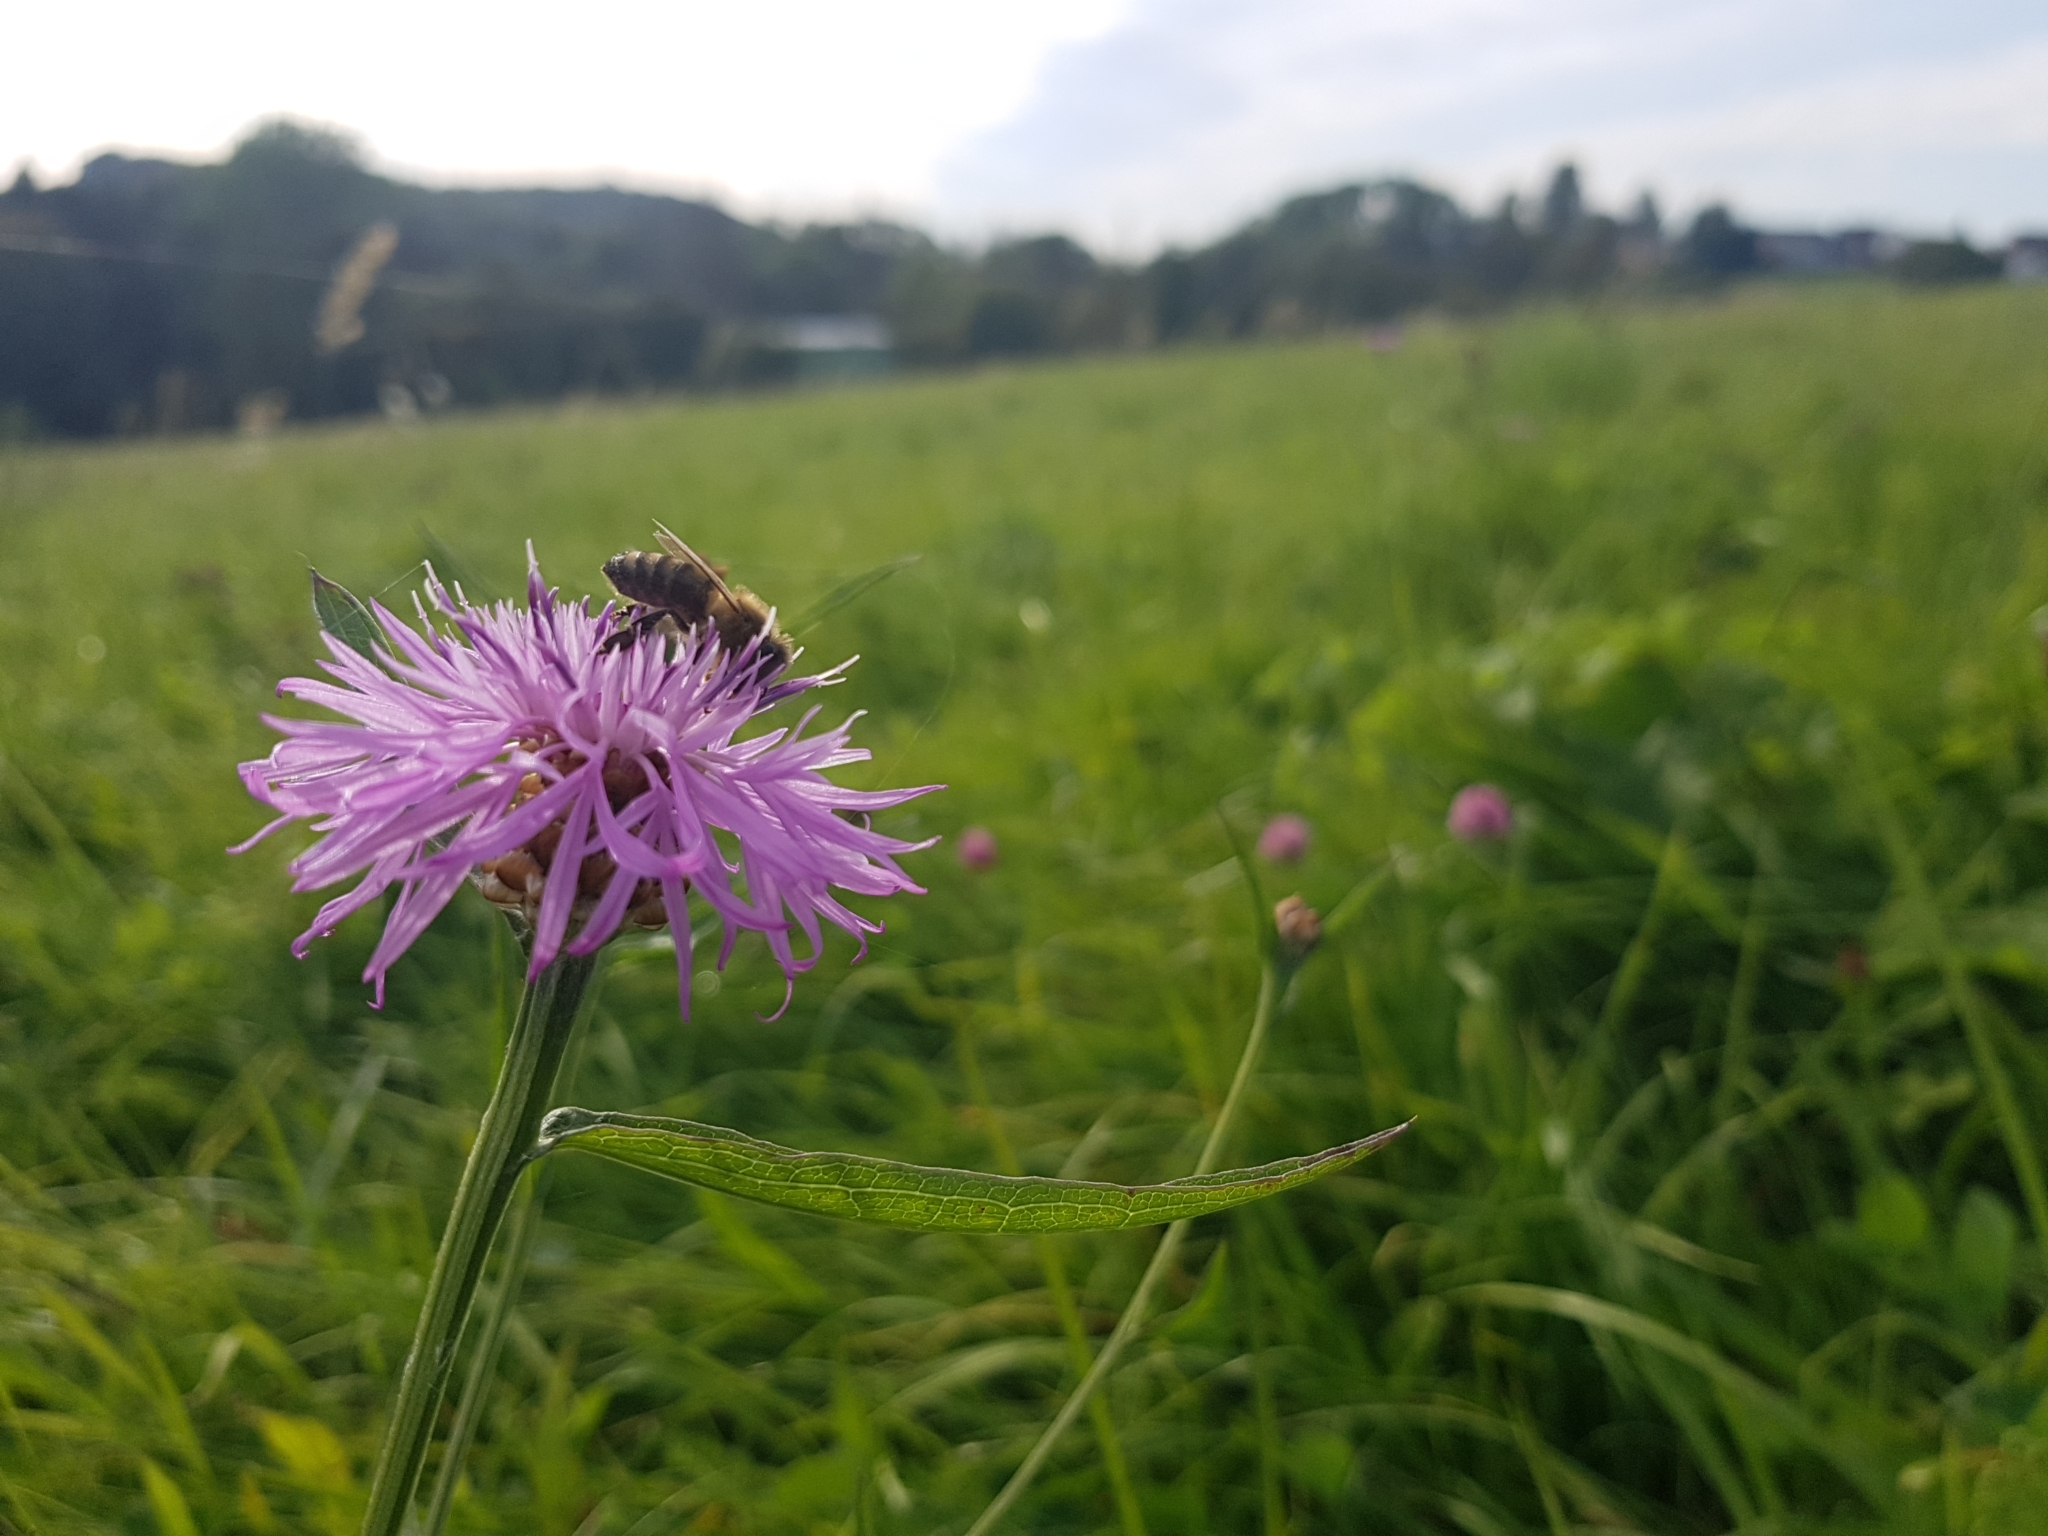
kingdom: Animalia
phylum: Arthropoda
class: Insecta
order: Hymenoptera
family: Apidae
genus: Apis
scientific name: Apis mellifera
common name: Honey bee
